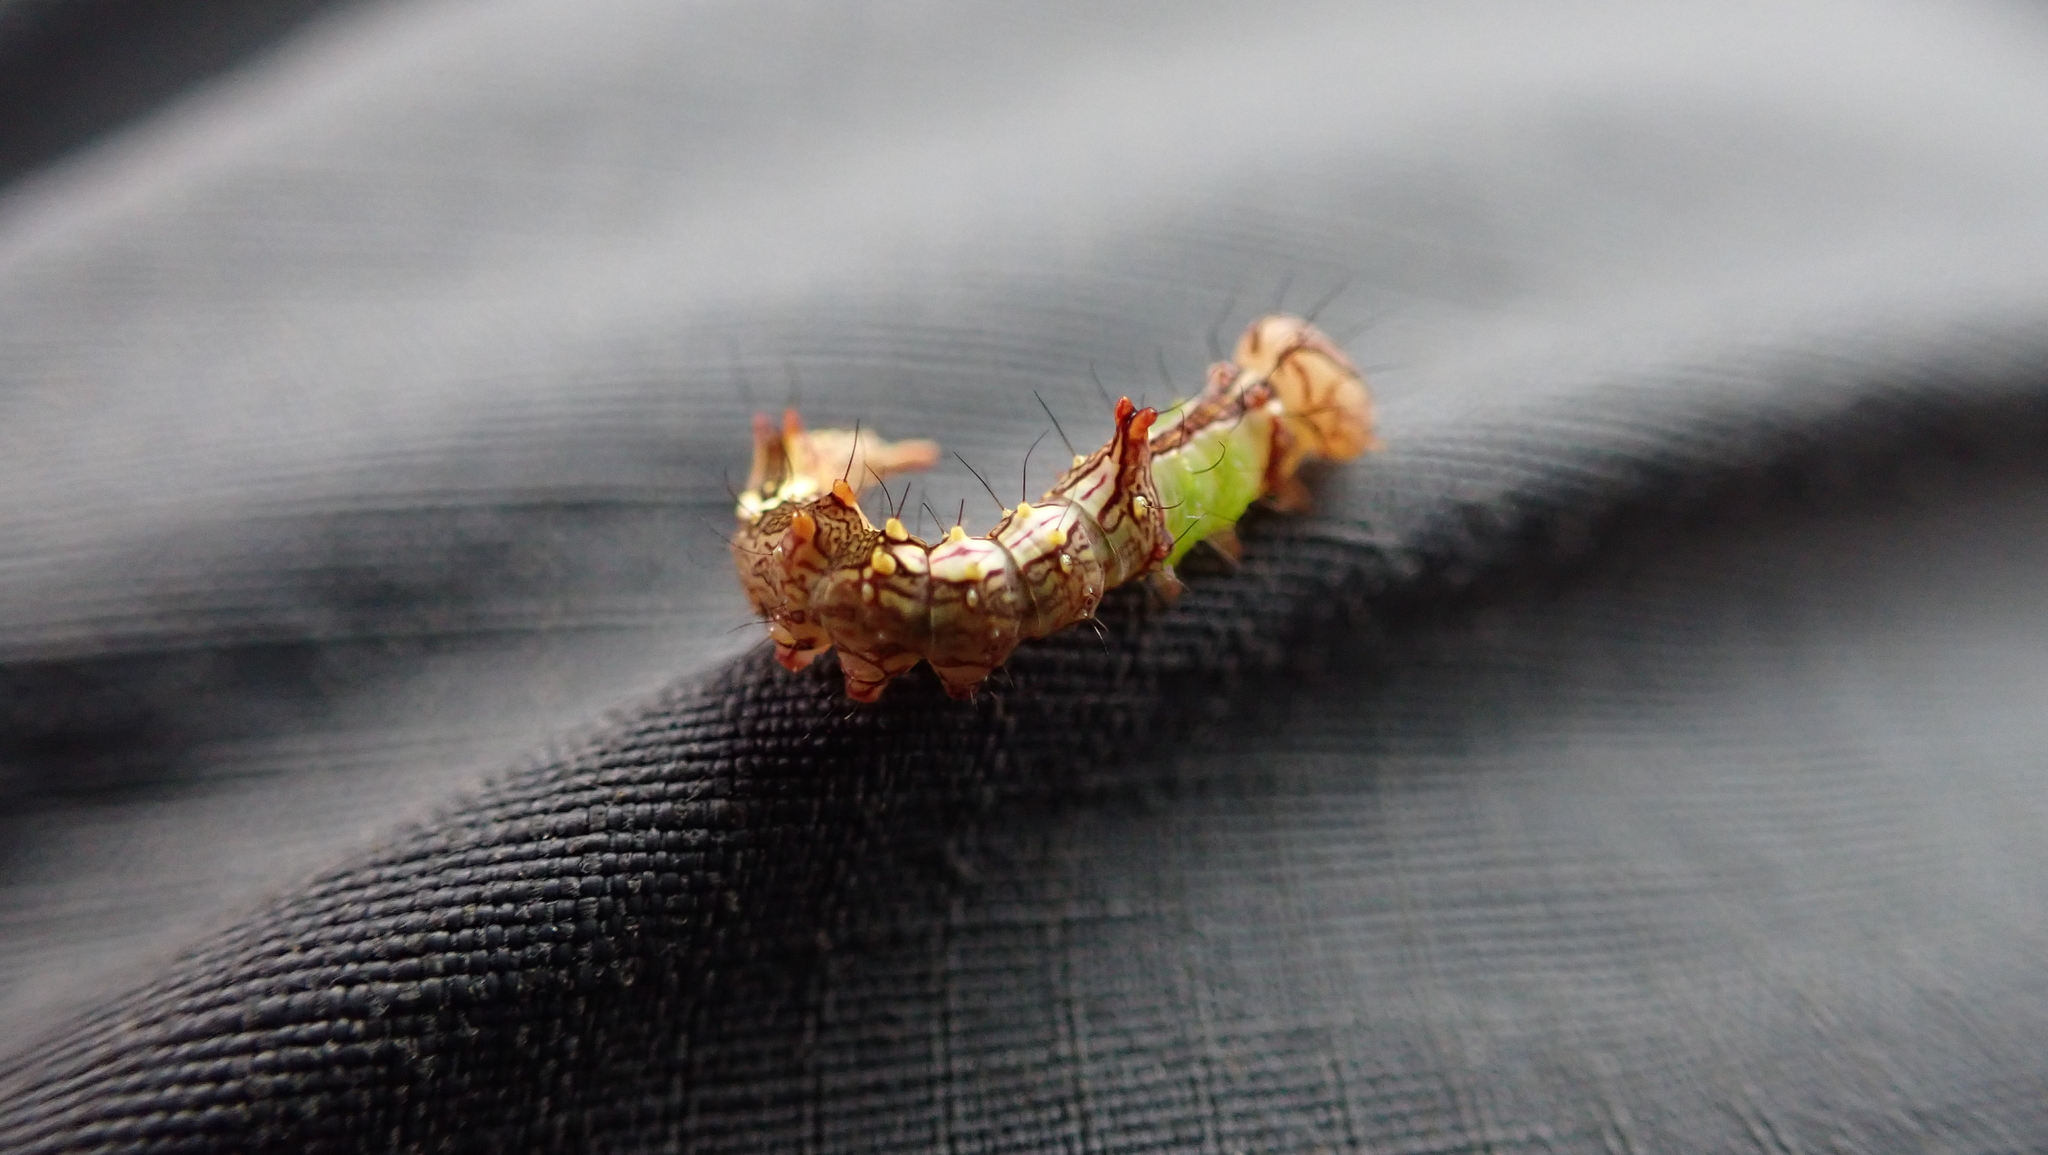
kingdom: Animalia
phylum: Arthropoda
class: Insecta
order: Lepidoptera
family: Notodontidae
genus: Schizura
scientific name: Schizura ipomaeae
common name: Morning-glory prominent
